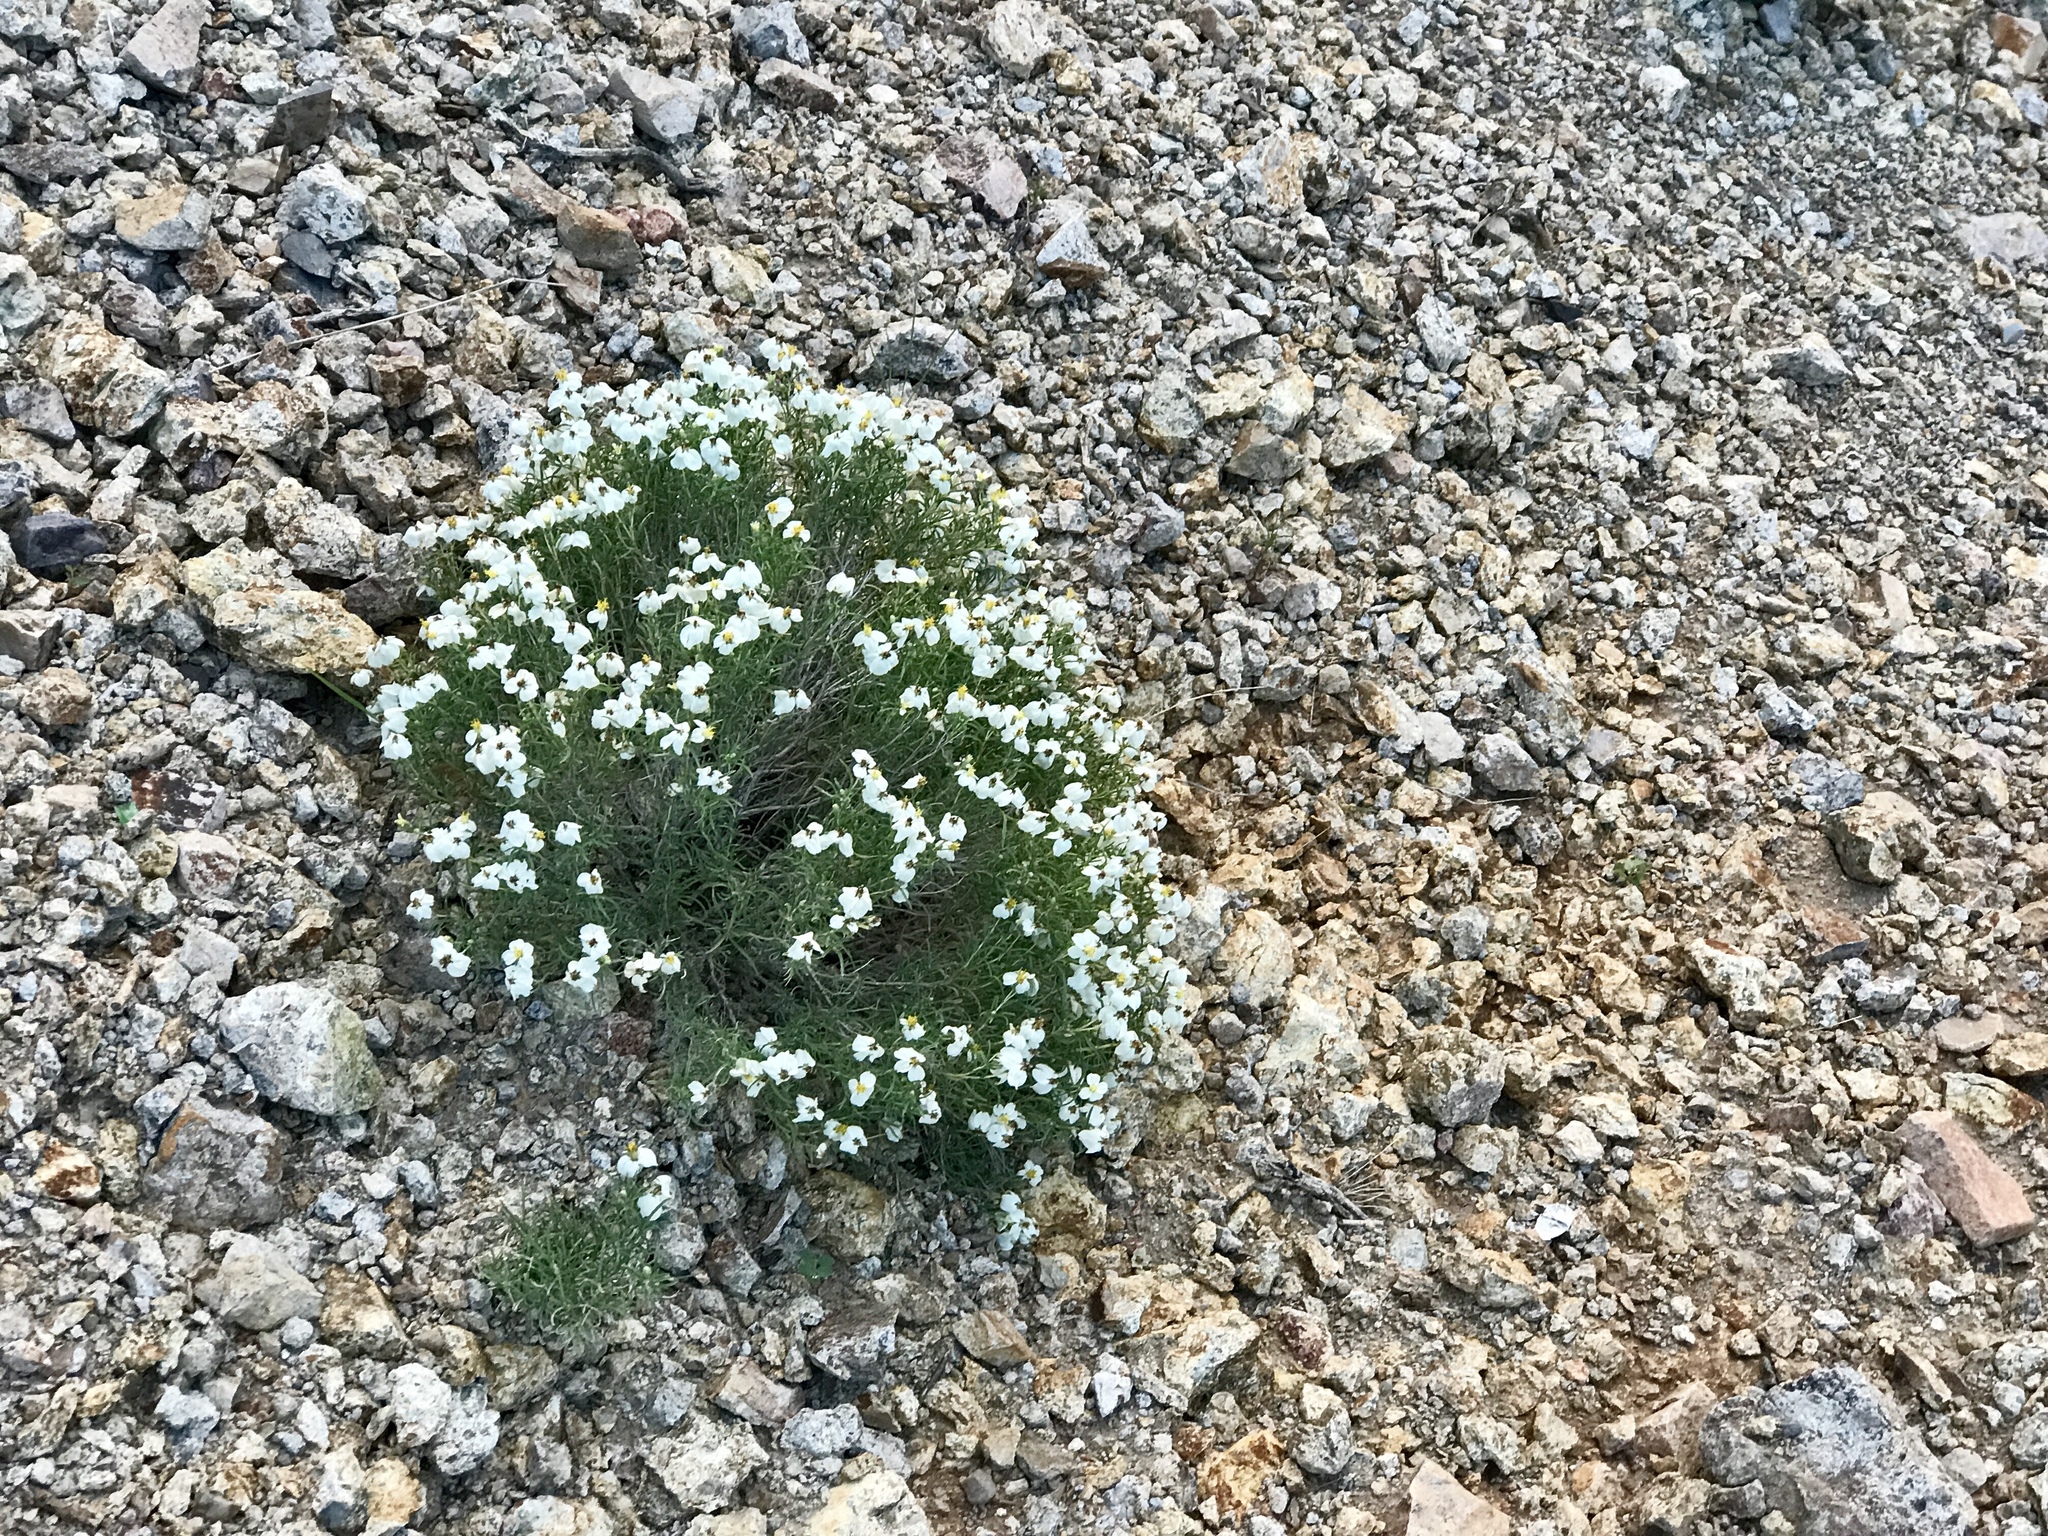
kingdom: Plantae
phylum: Tracheophyta
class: Magnoliopsida
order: Asterales
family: Asteraceae
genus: Zinnia
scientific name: Zinnia acerosa
